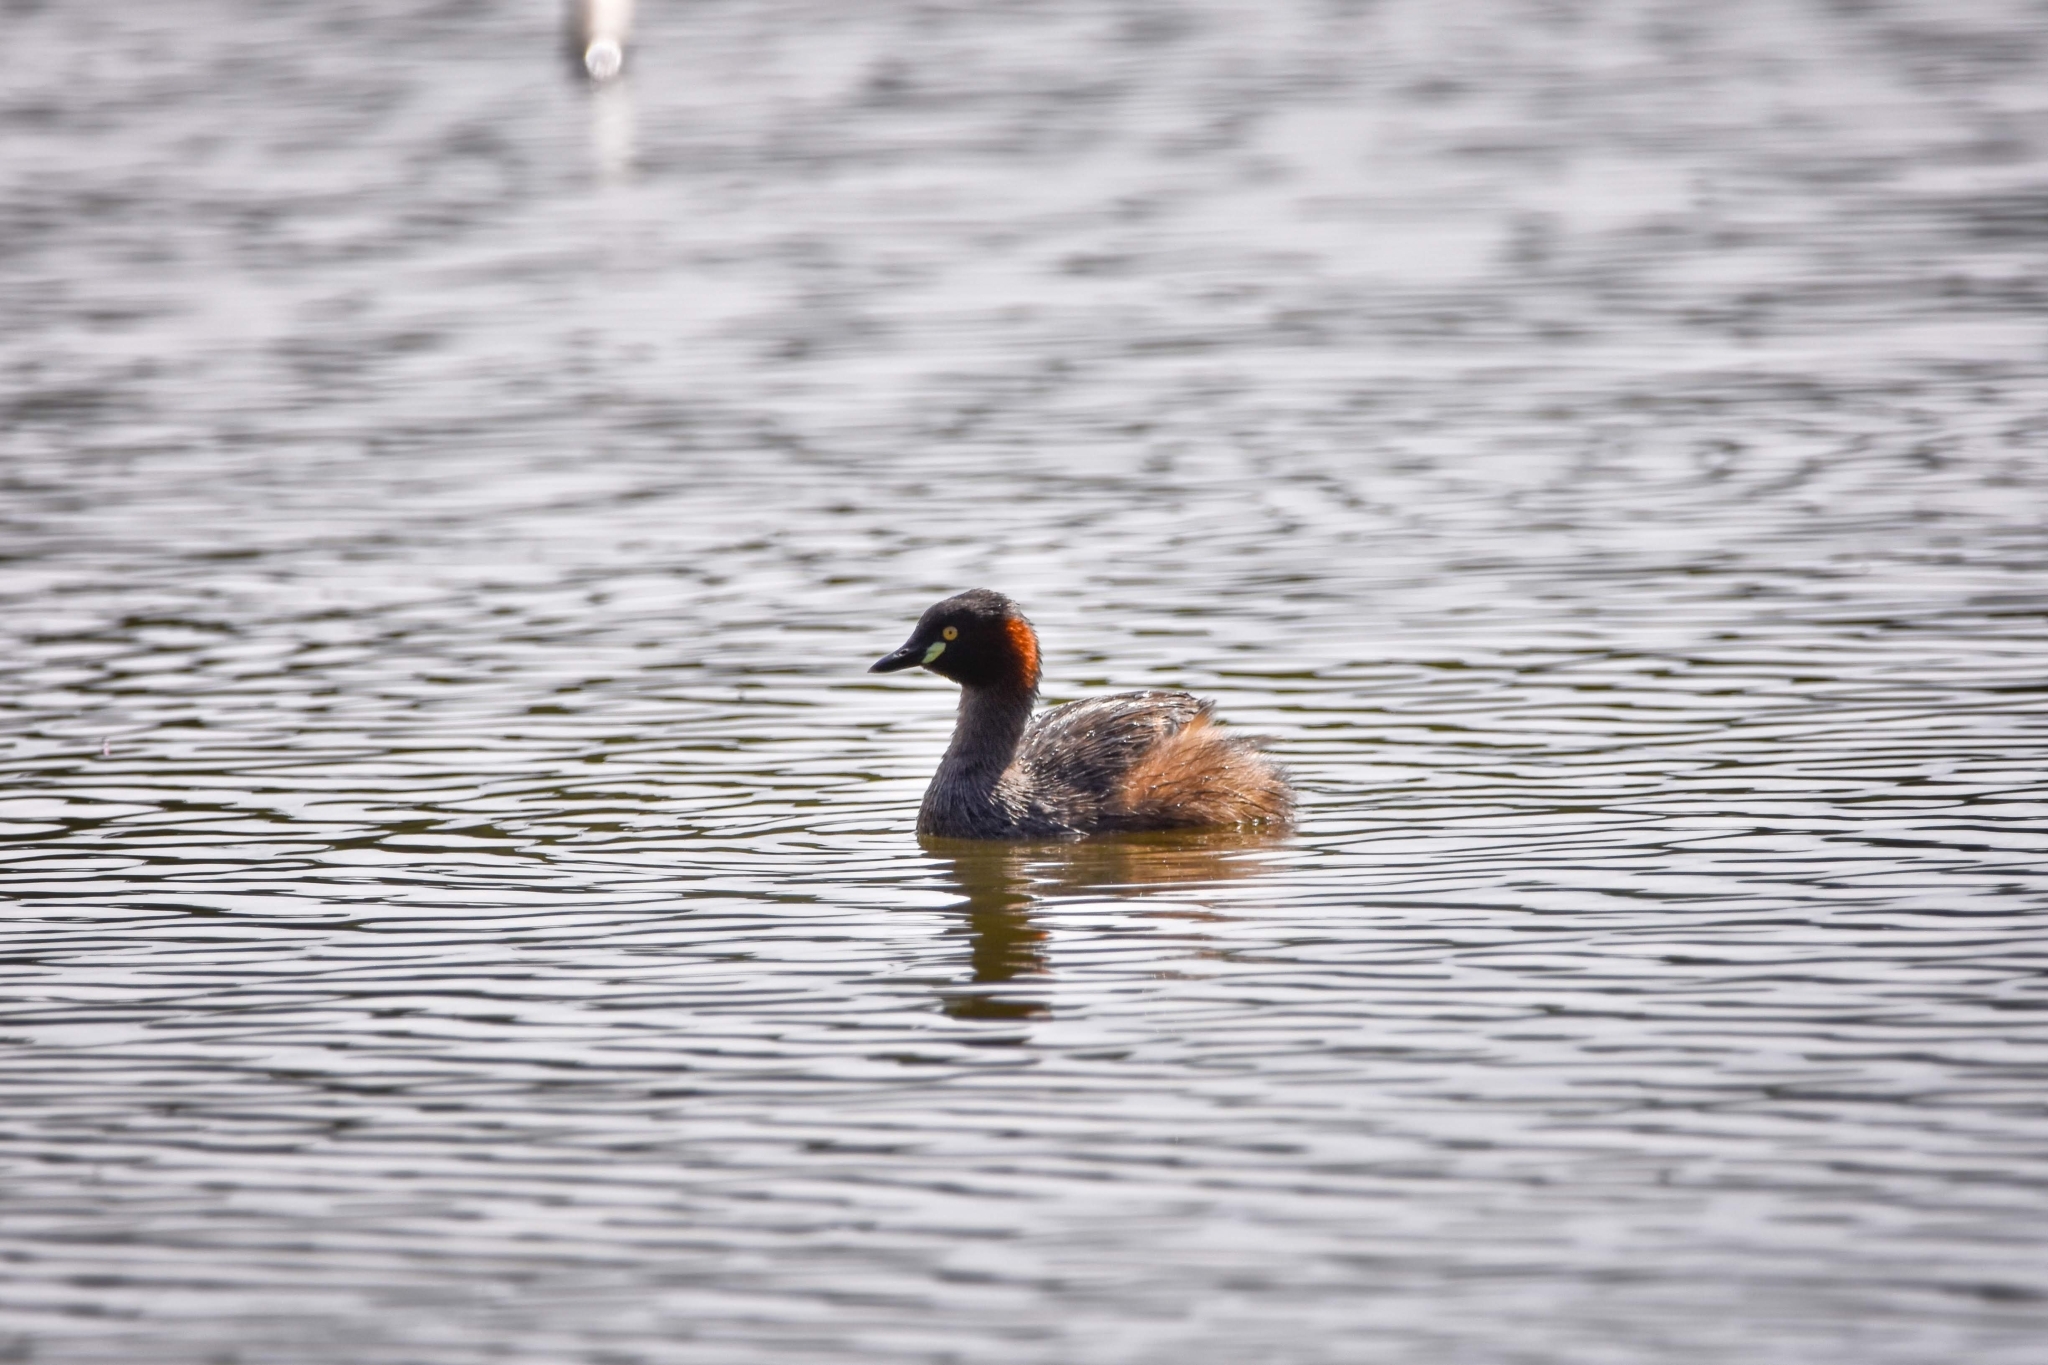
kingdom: Animalia
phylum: Chordata
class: Aves
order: Podicipediformes
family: Podicipedidae
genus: Tachybaptus
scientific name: Tachybaptus novaehollandiae
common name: Australasian grebe
